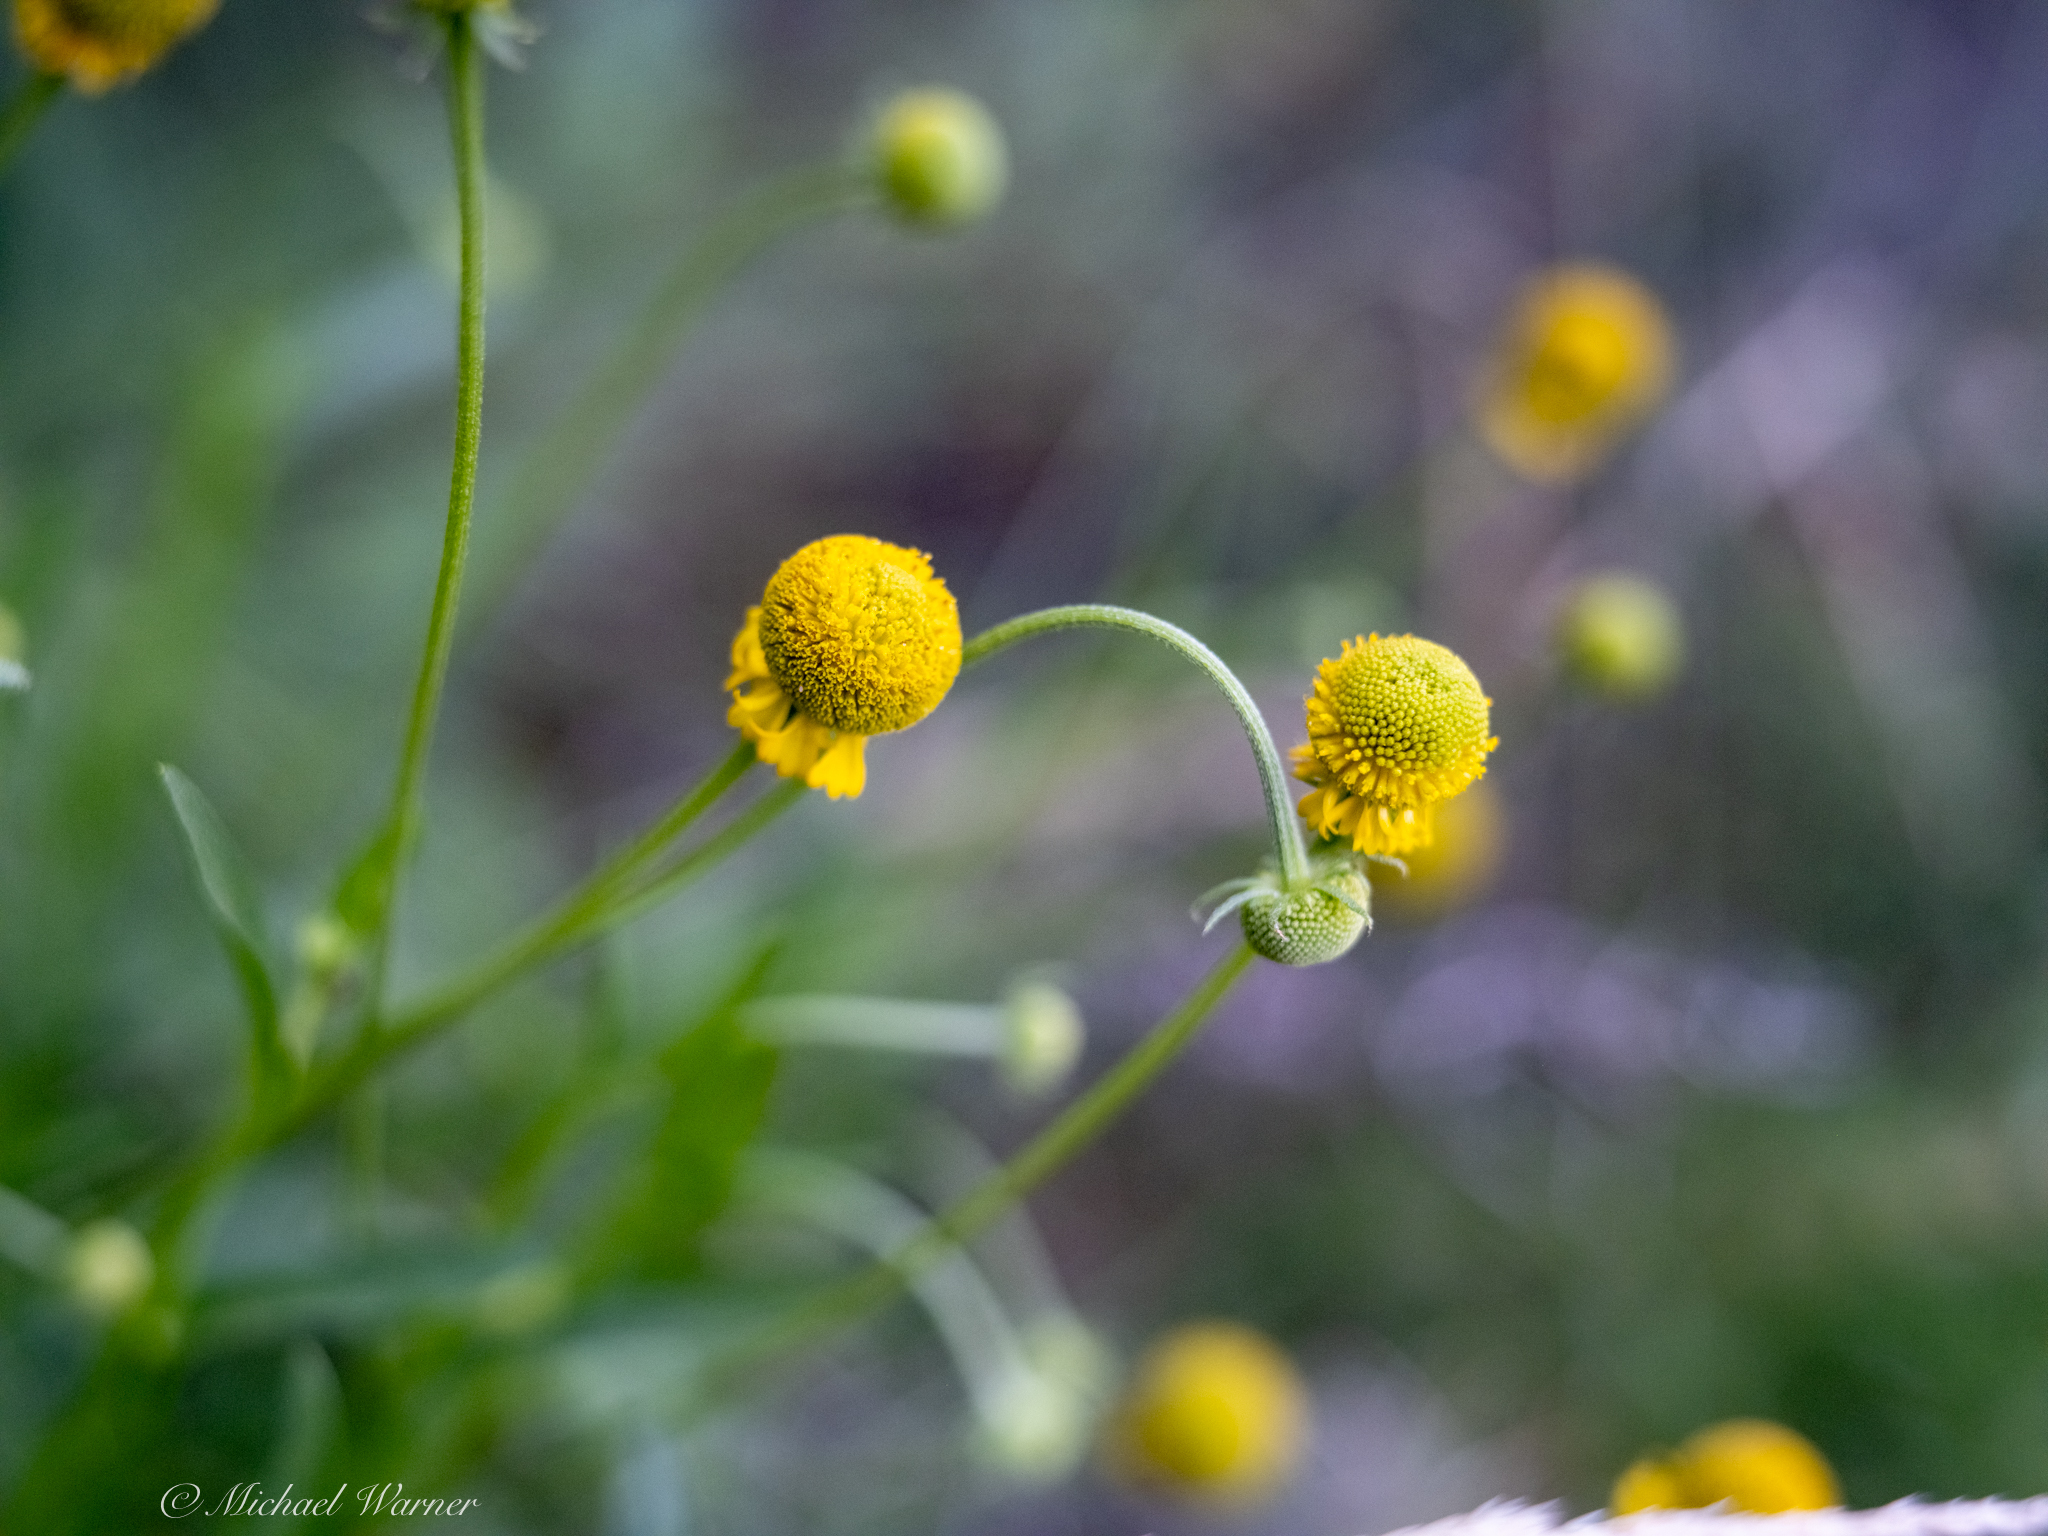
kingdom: Plantae
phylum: Tracheophyta
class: Magnoliopsida
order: Asterales
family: Asteraceae
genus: Helenium
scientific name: Helenium puberulum
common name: Sneezewort
